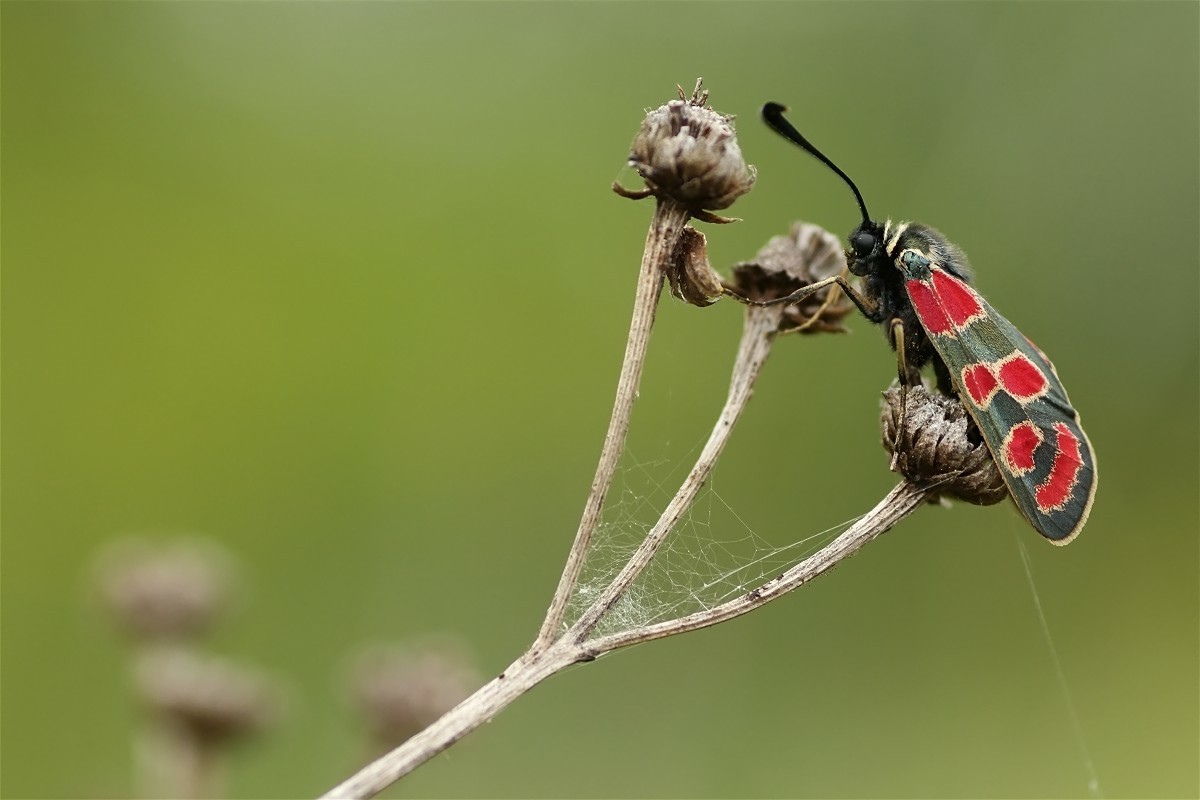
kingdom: Animalia
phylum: Arthropoda
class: Insecta
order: Lepidoptera
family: Zygaenidae
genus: Zygaena
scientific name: Zygaena carniolica
